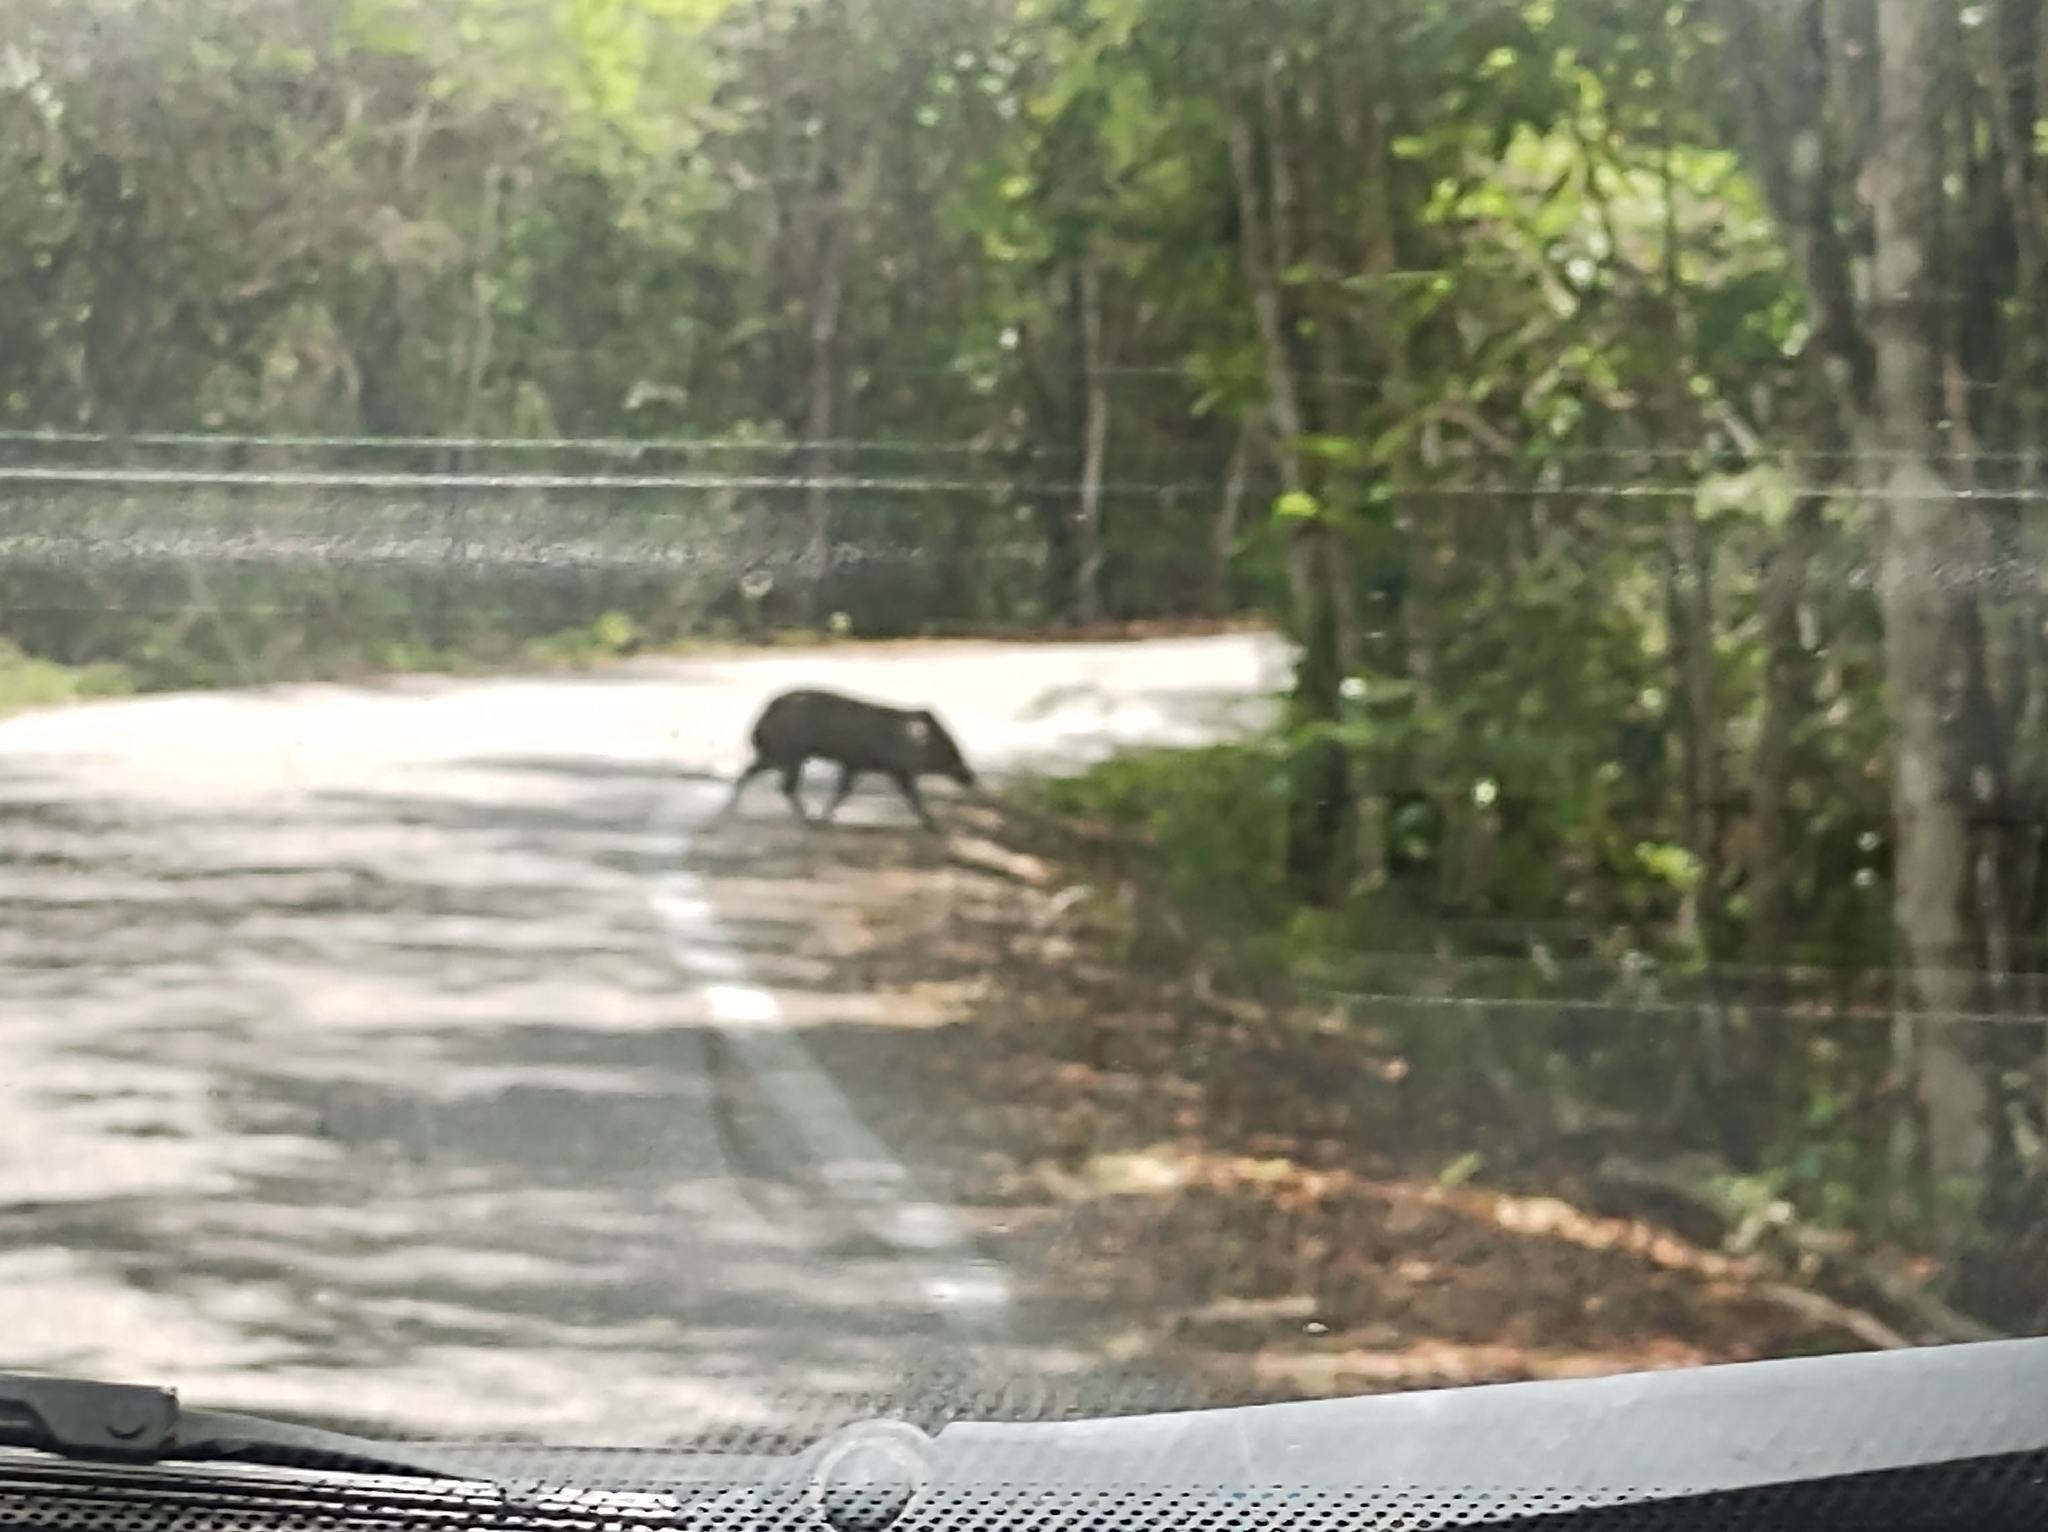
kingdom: Animalia
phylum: Chordata
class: Mammalia
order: Artiodactyla
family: Tayassuidae
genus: Pecari
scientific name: Pecari tajacu
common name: Collared peccary
